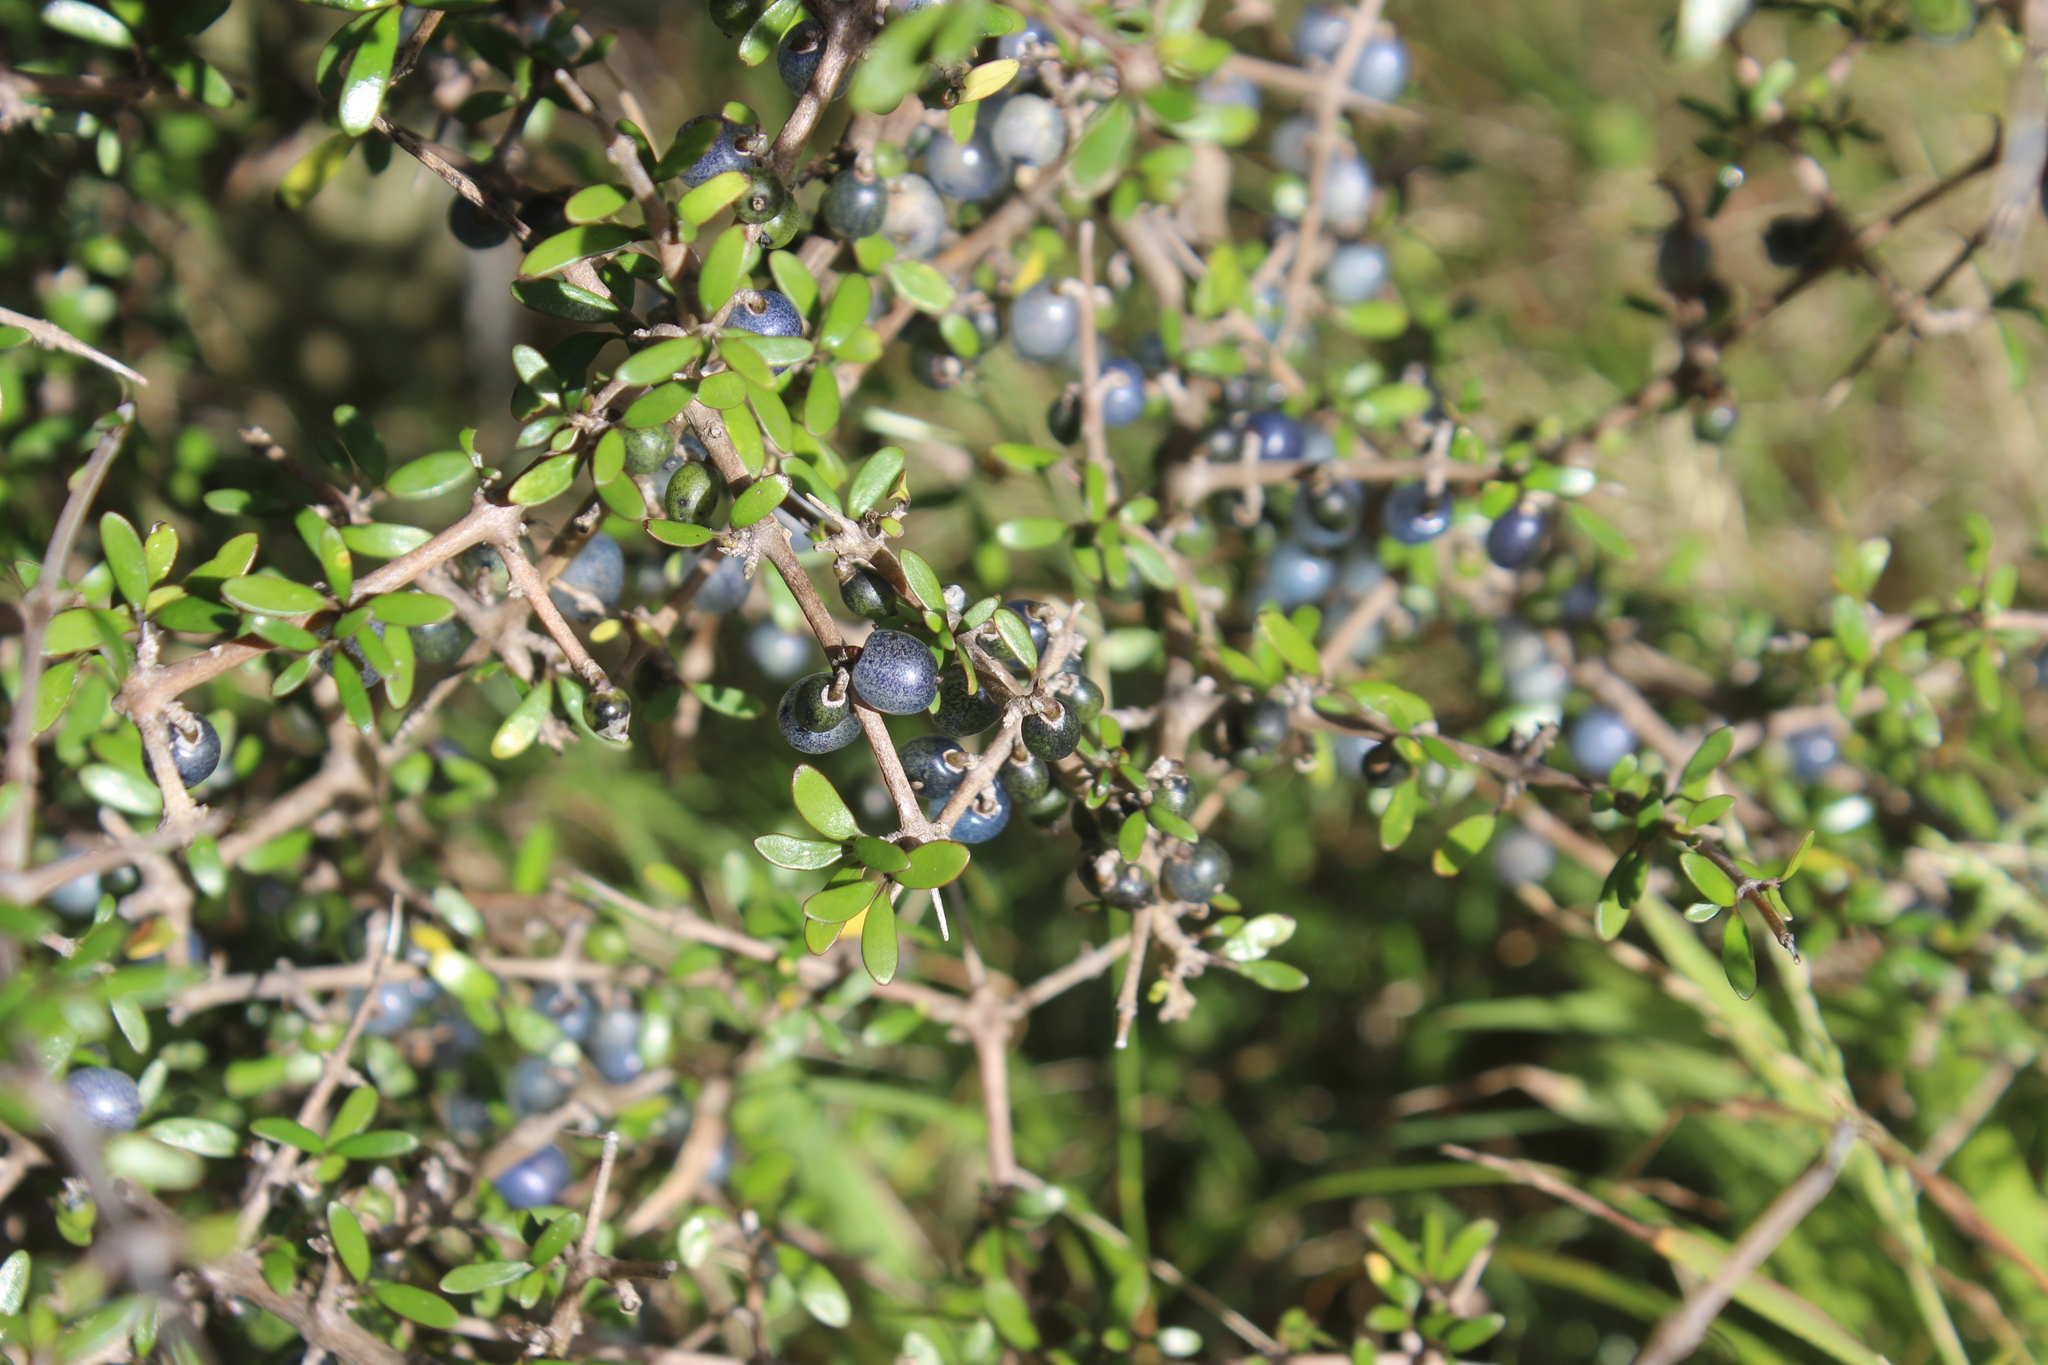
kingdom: Plantae
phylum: Tracheophyta
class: Magnoliopsida
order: Gentianales
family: Rubiaceae
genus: Coprosma
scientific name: Coprosma propinqua
